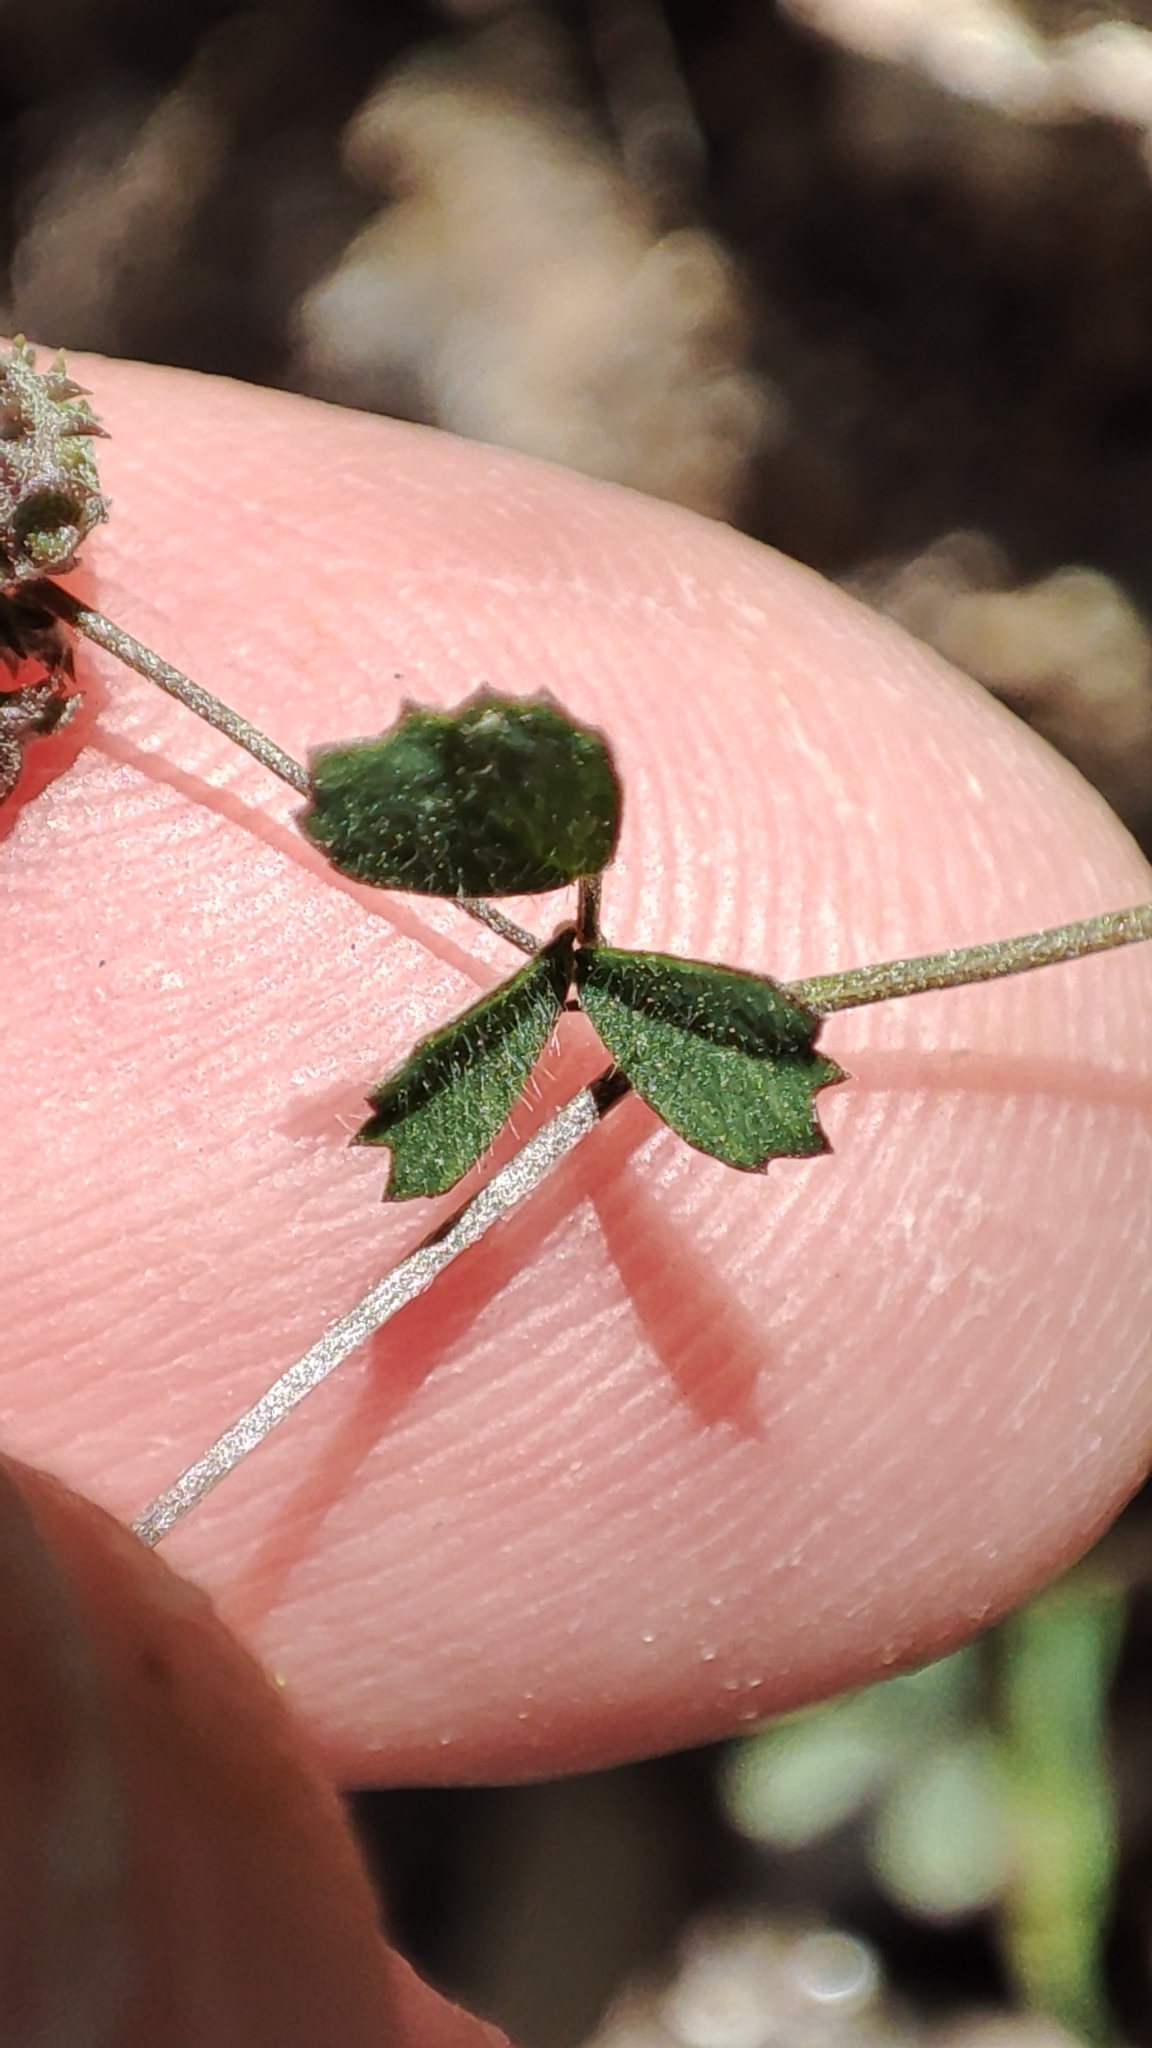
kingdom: Plantae
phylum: Tracheophyta
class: Magnoliopsida
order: Fabales
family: Fabaceae
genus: Medicago
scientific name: Medicago coronata
